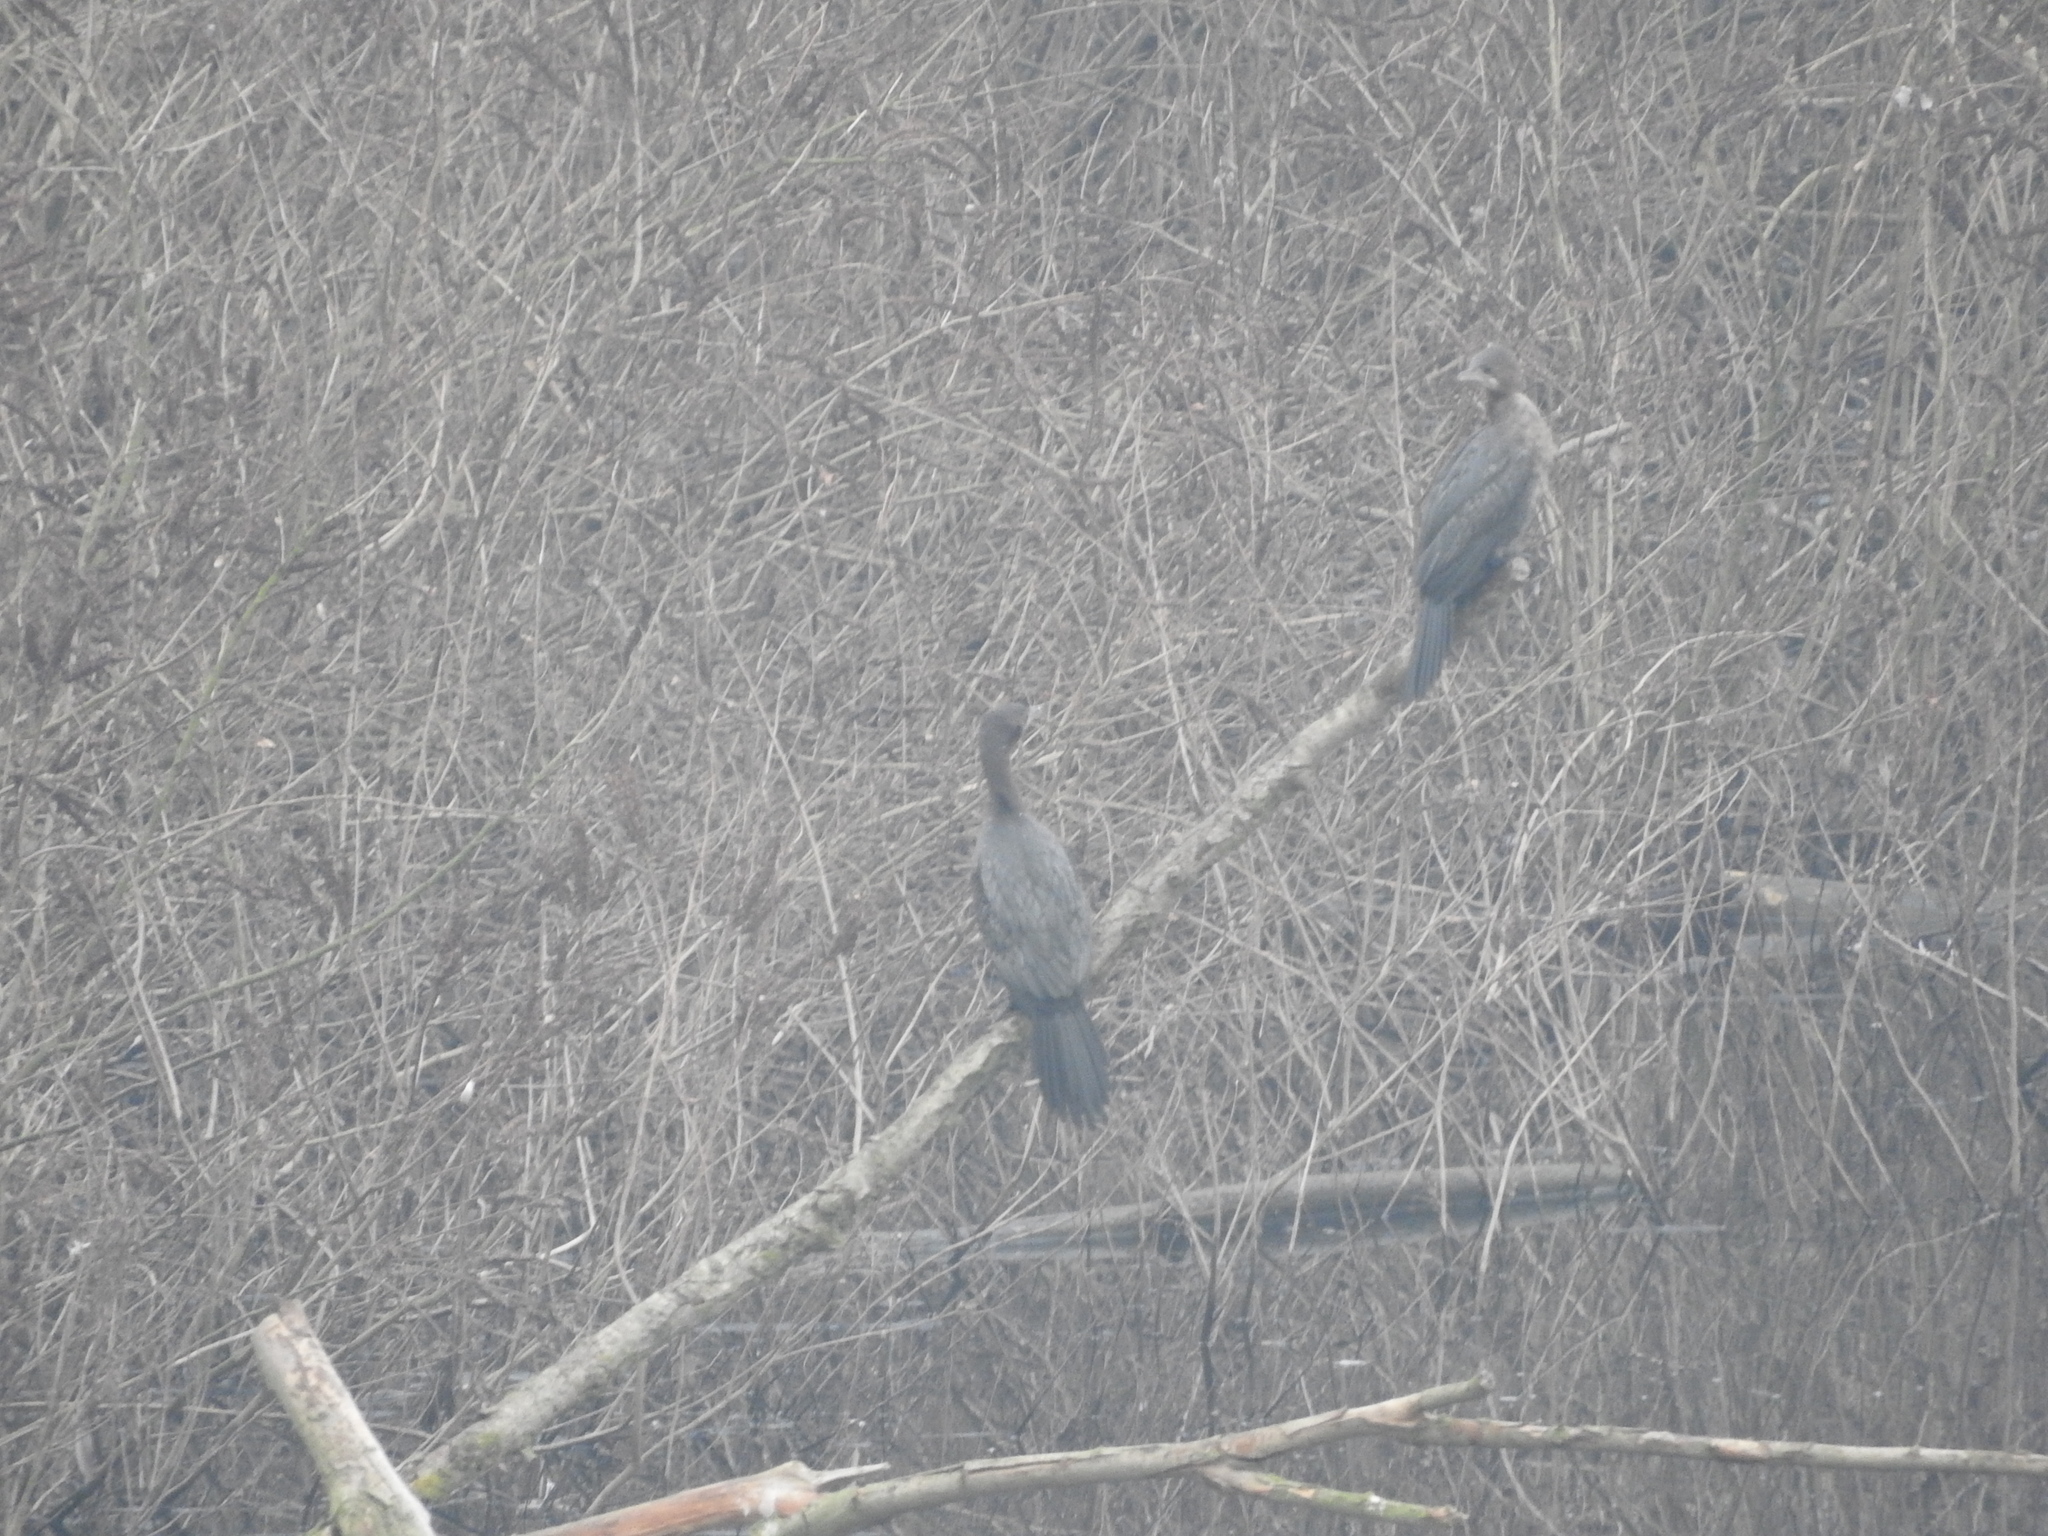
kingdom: Animalia
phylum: Chordata
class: Aves
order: Suliformes
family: Phalacrocoracidae
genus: Microcarbo
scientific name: Microcarbo pygmaeus
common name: Pygmy cormorant
